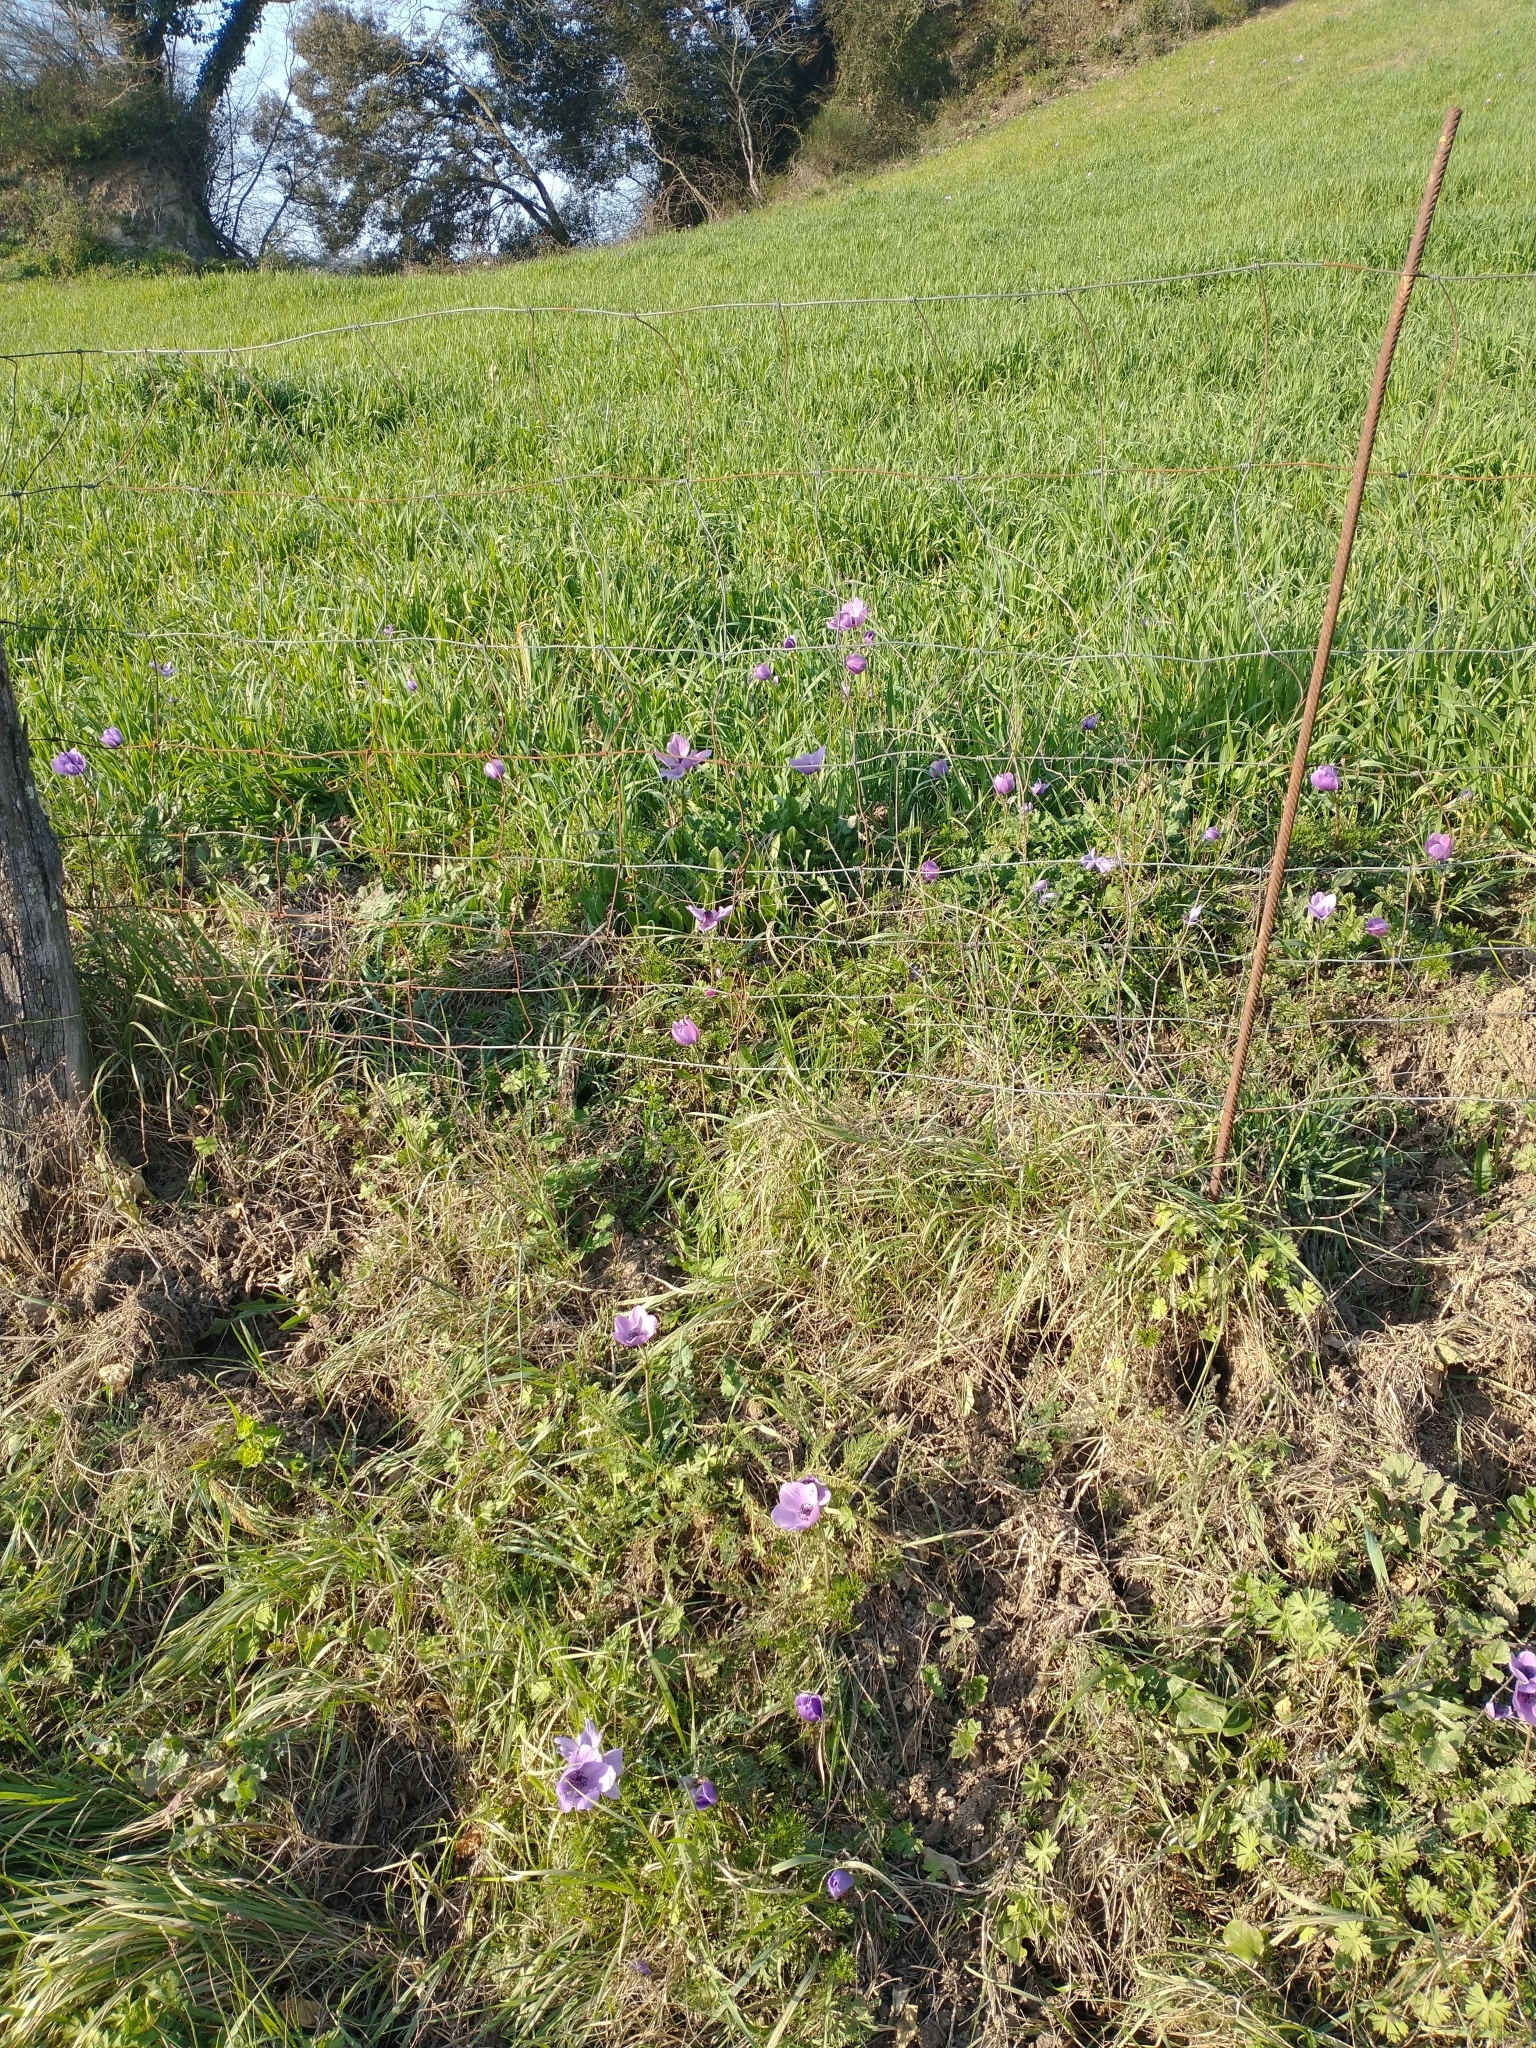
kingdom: Plantae
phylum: Tracheophyta
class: Magnoliopsida
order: Ranunculales
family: Ranunculaceae
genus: Anemone
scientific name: Anemone coronaria
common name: Poppy anemone
